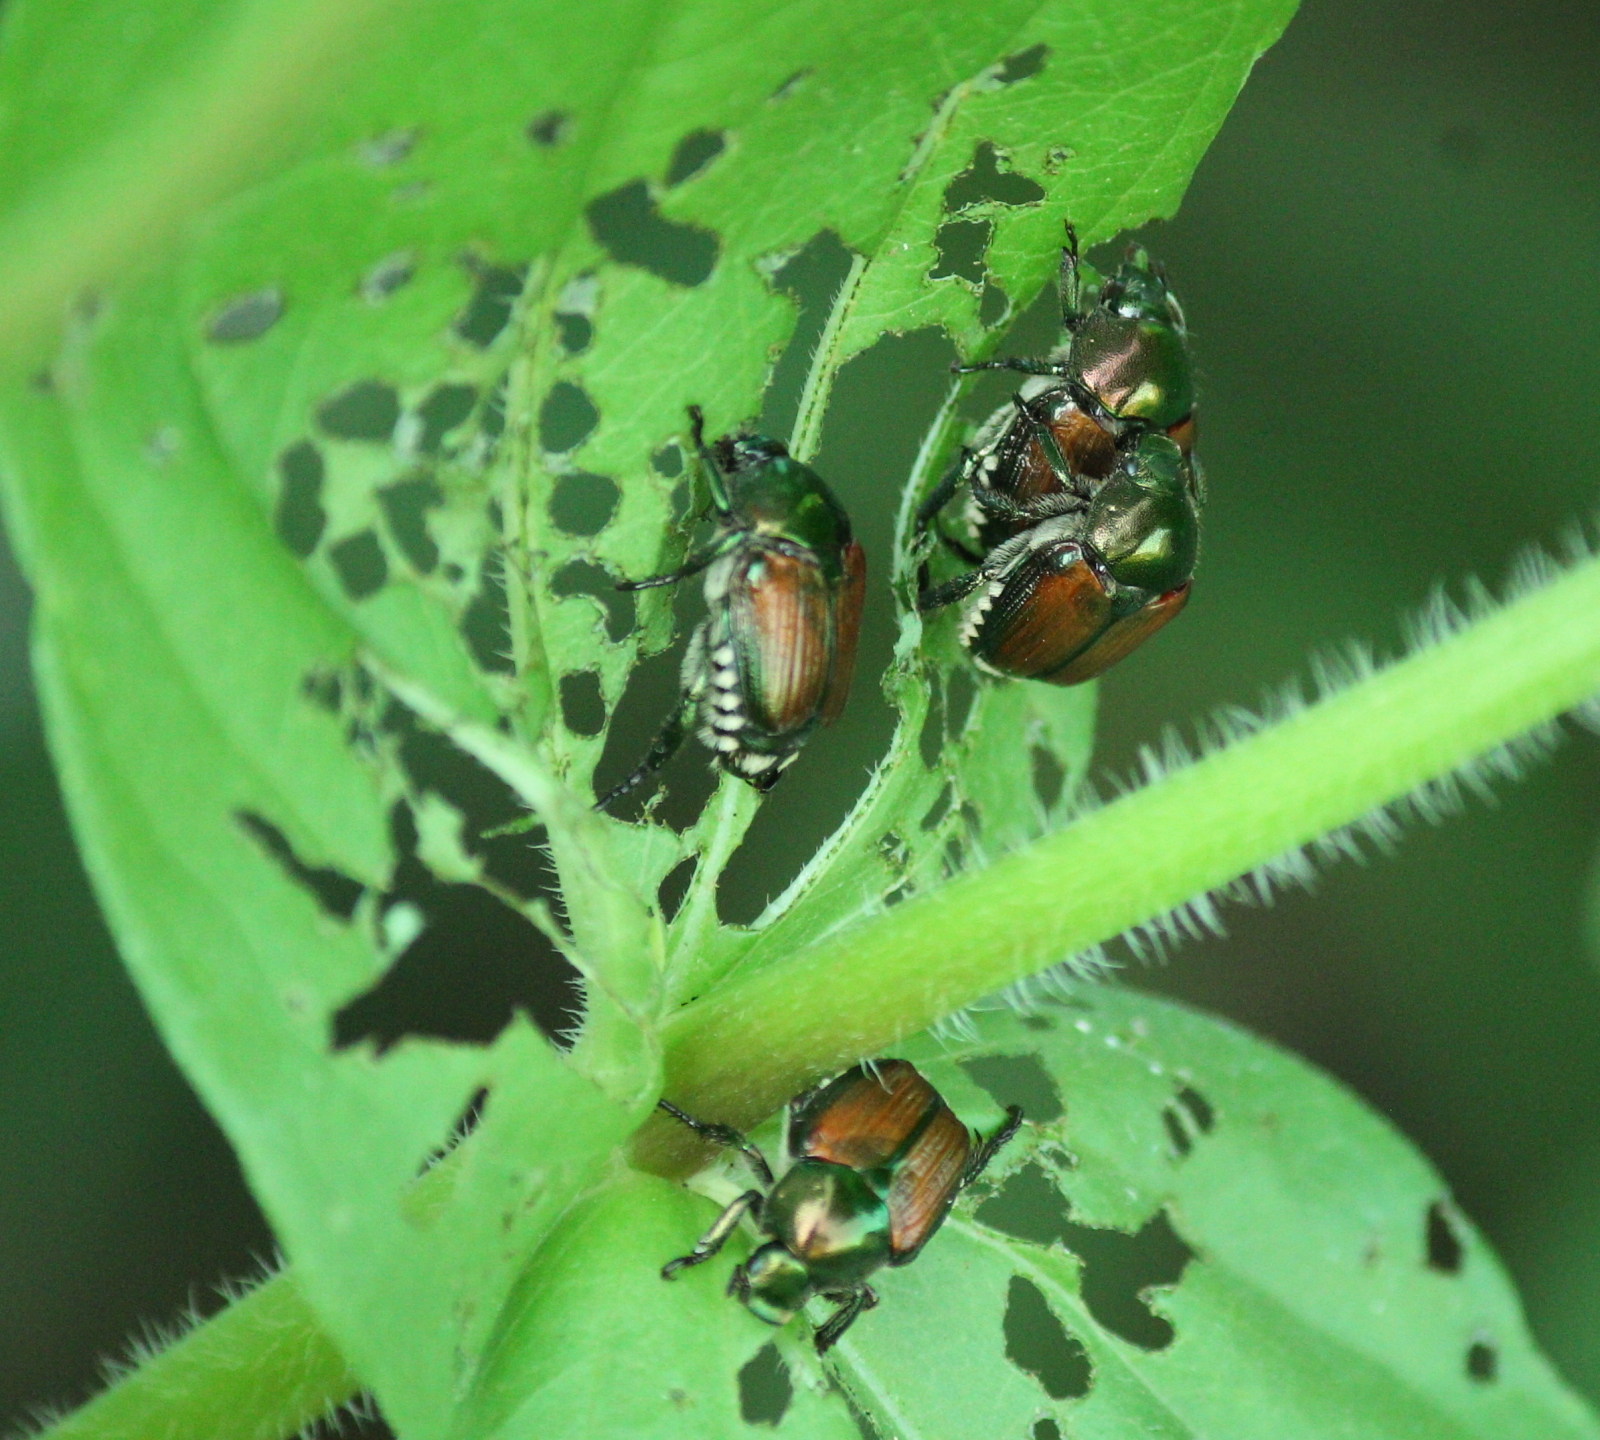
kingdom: Animalia
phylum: Arthropoda
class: Insecta
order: Coleoptera
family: Scarabaeidae
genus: Popillia
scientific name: Popillia japonica
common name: Japanese beetle
